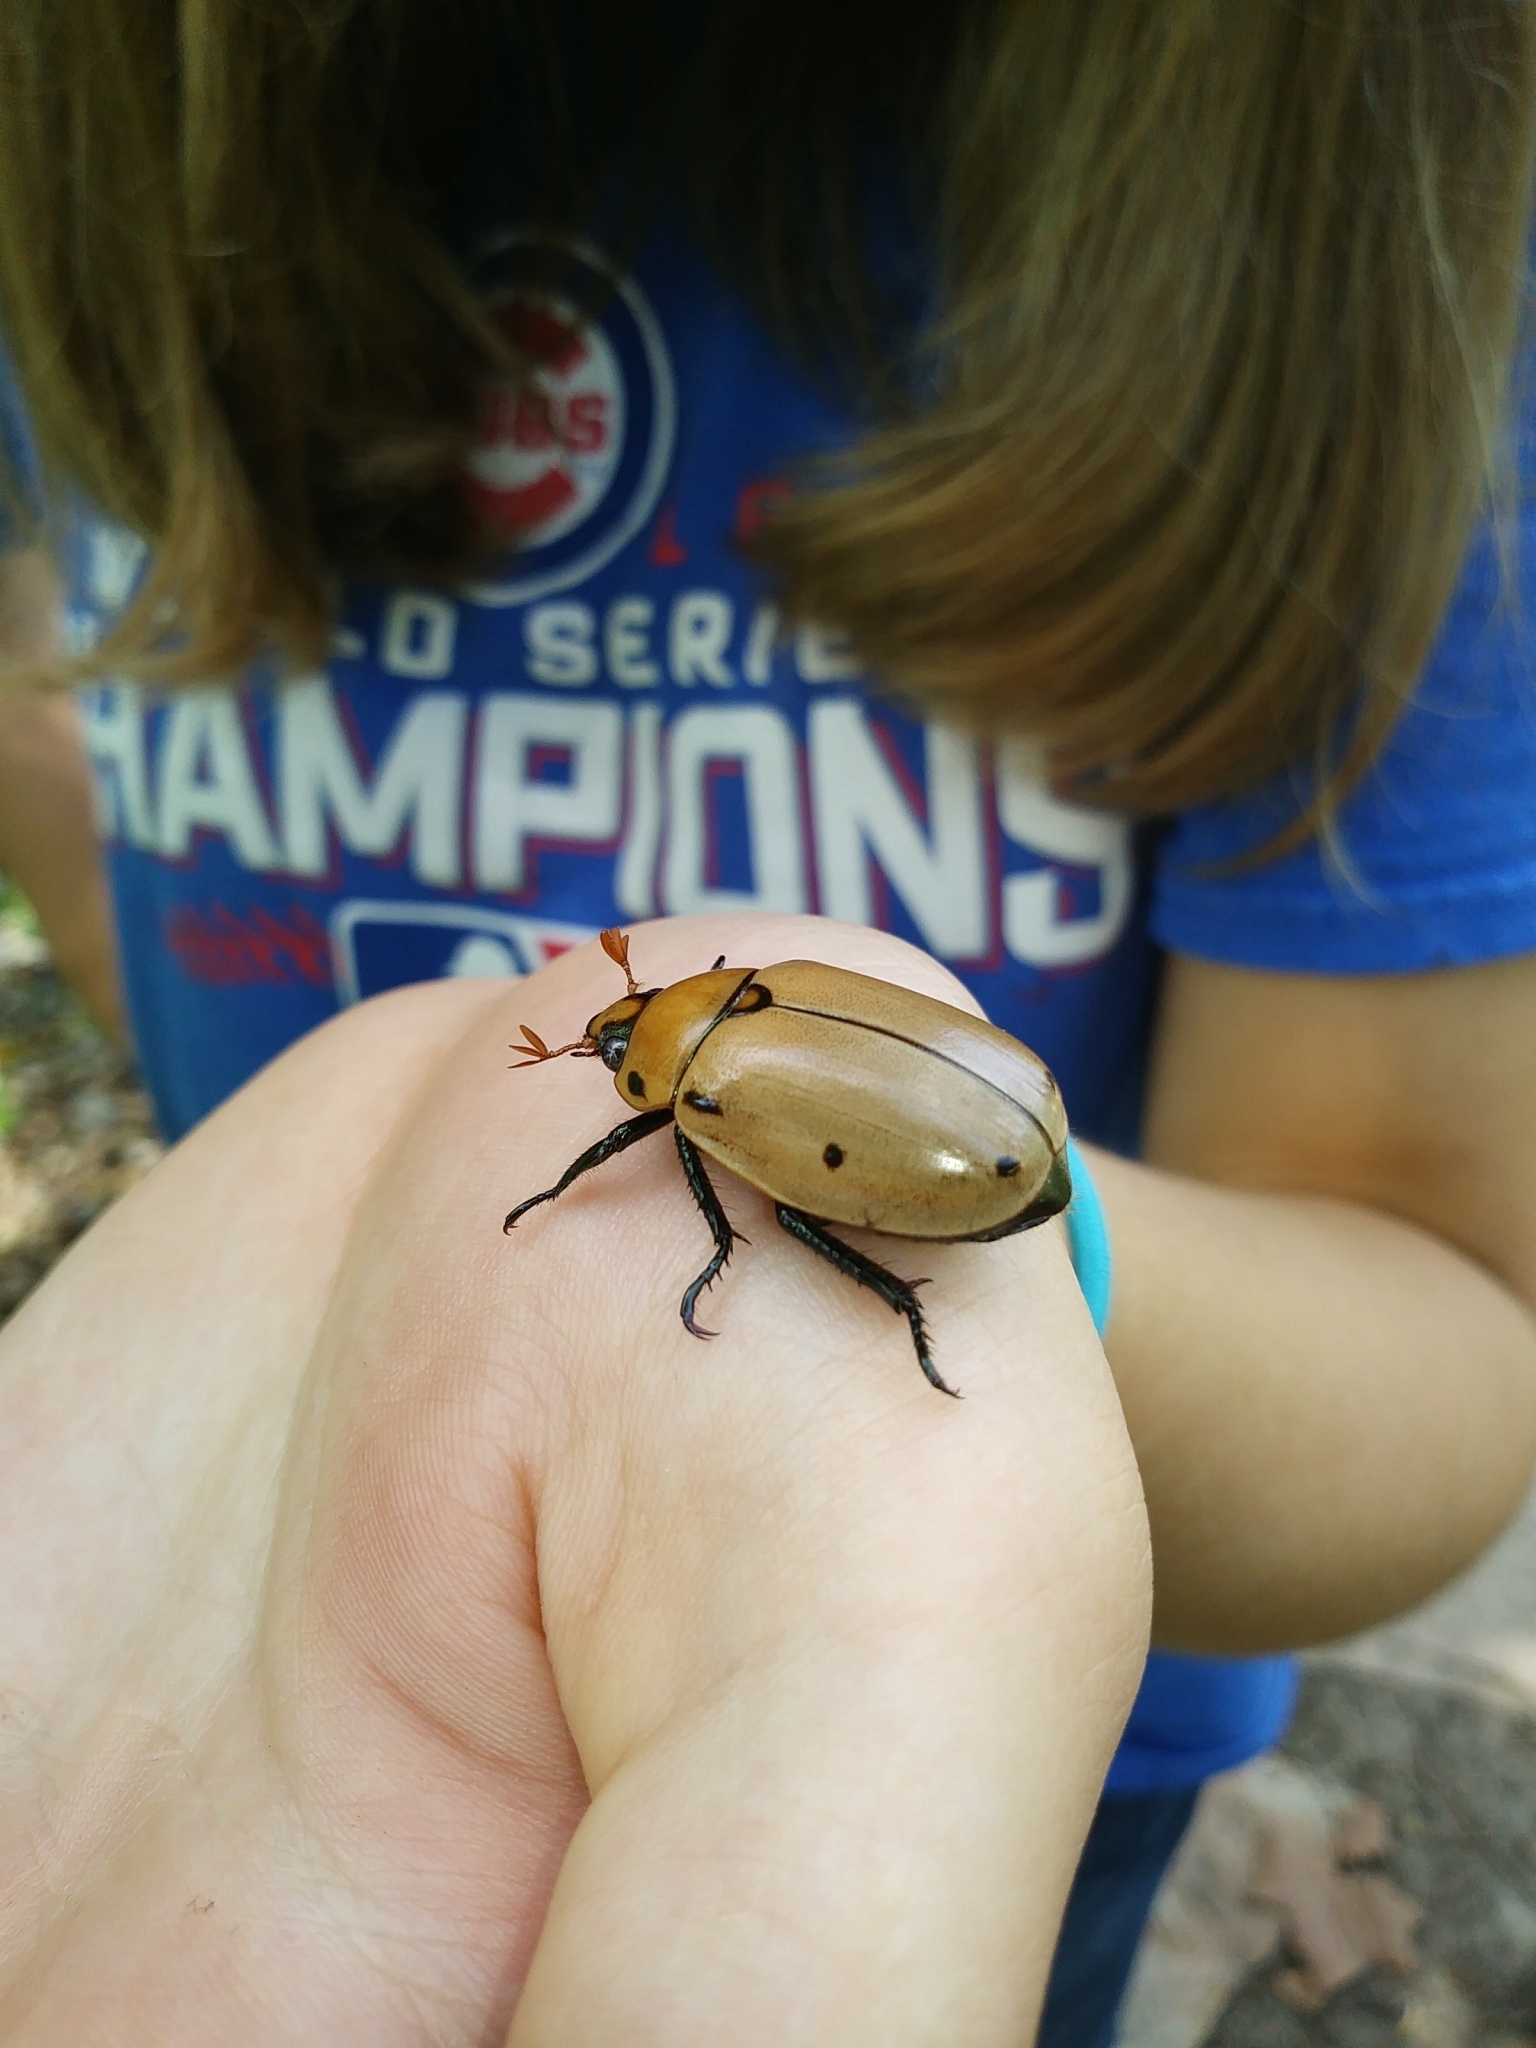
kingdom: Animalia
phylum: Arthropoda
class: Insecta
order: Coleoptera
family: Scarabaeidae
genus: Pelidnota
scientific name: Pelidnota punctata
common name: Grapevine beetle
